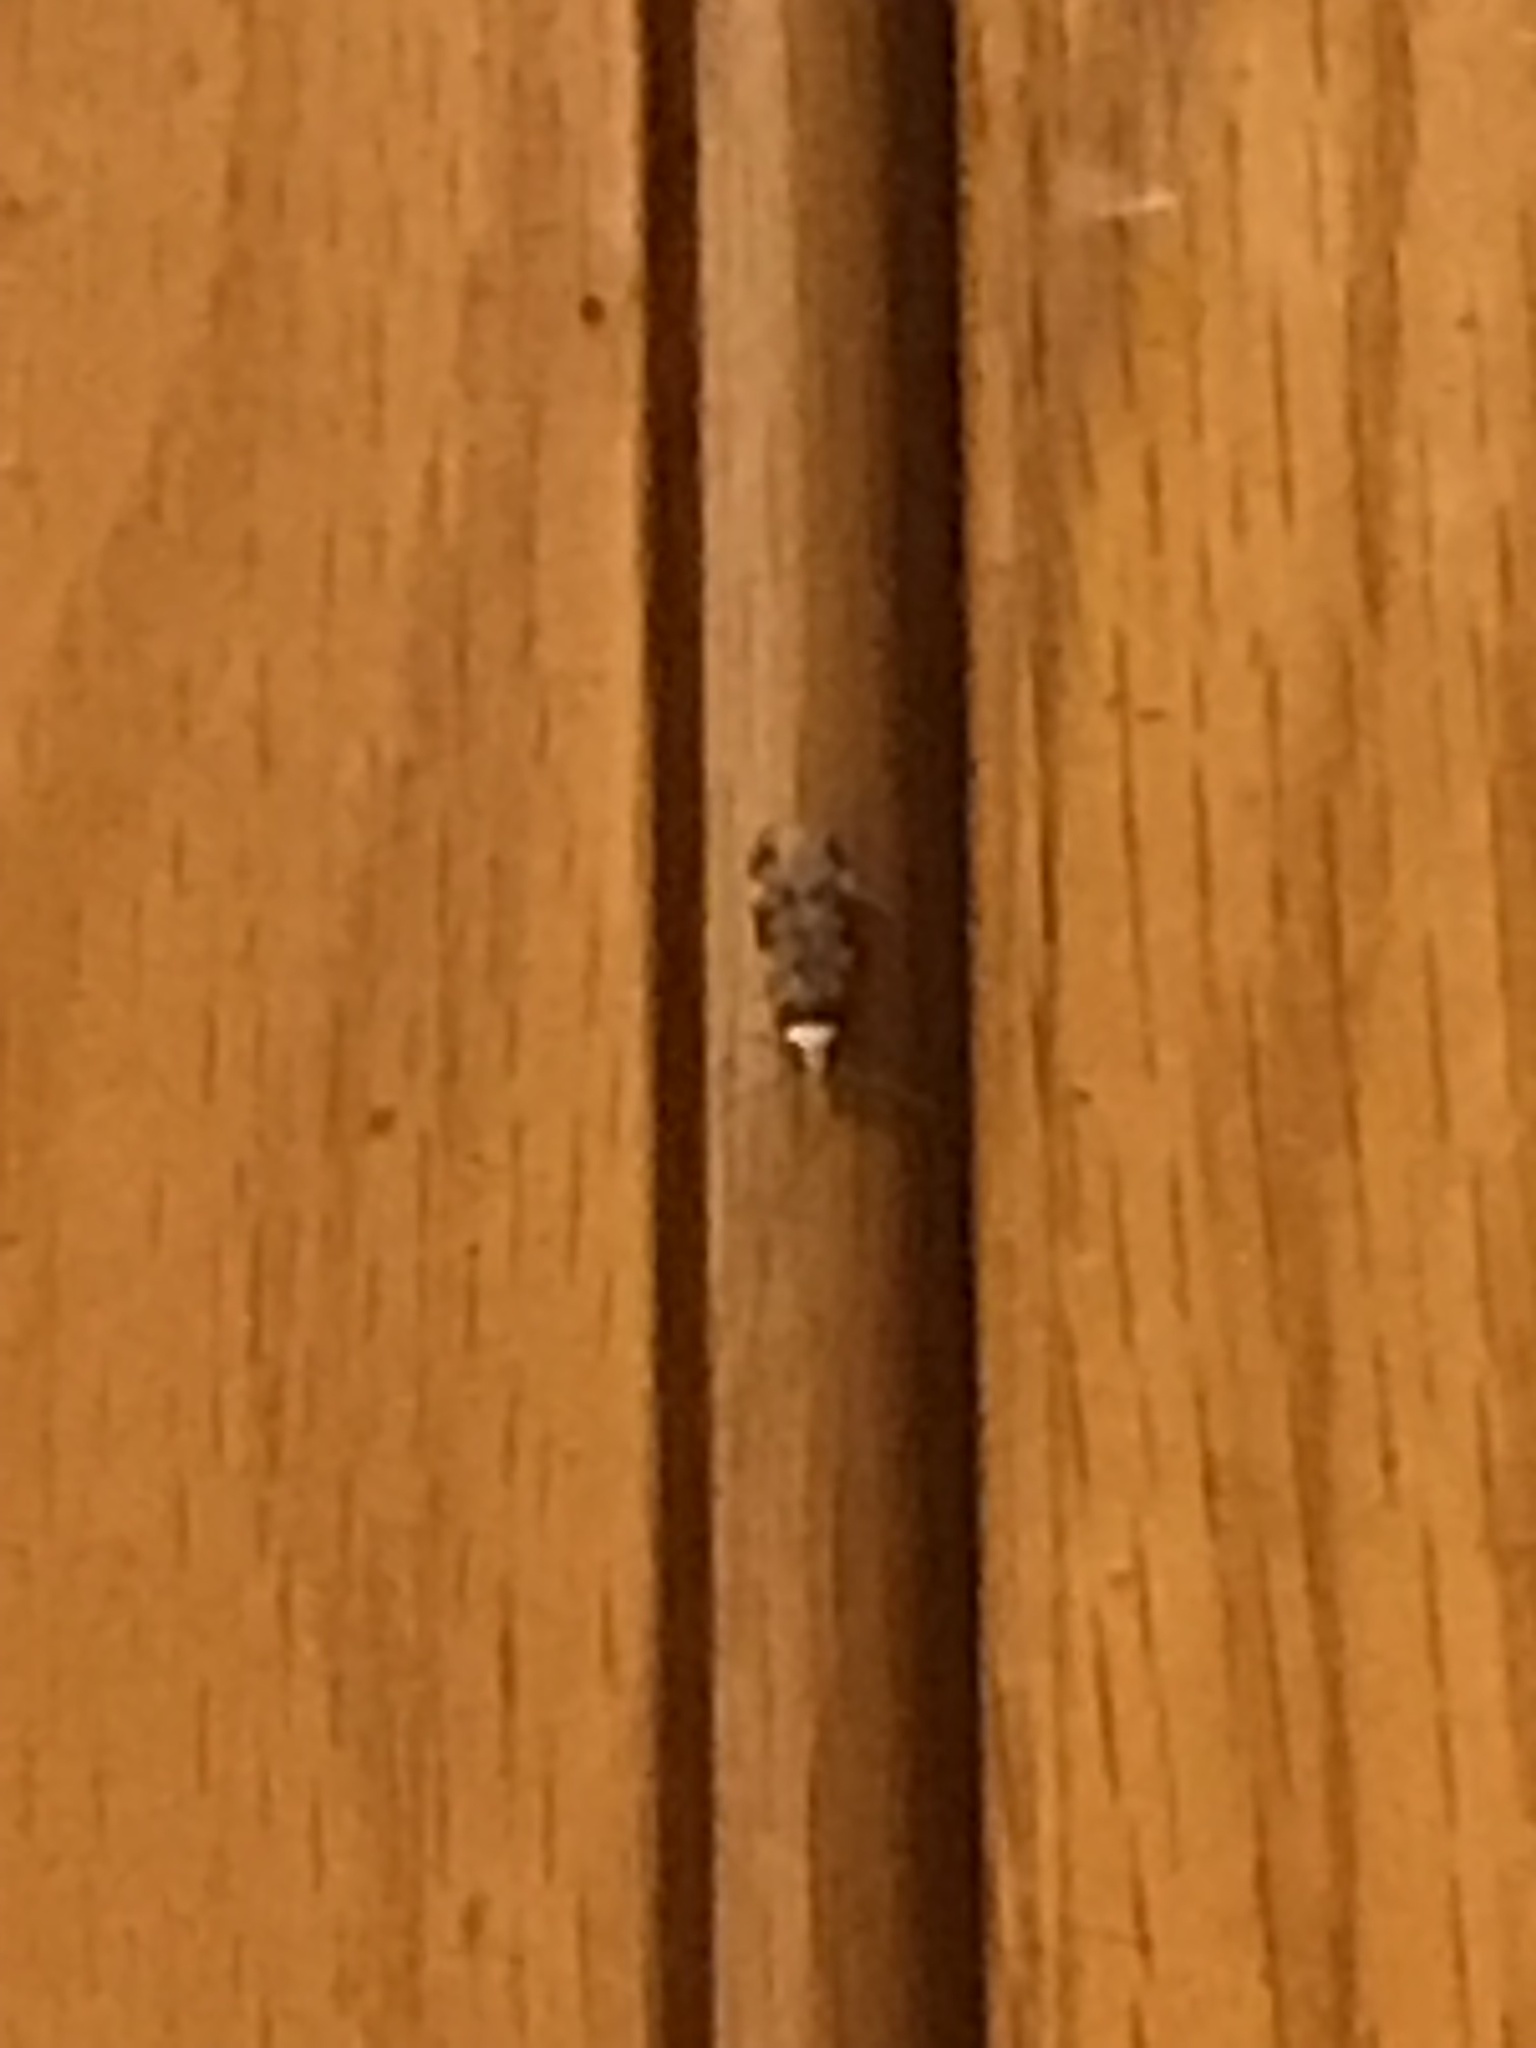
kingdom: Animalia
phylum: Arthropoda
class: Insecta
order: Lepidoptera
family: Oecophoridae
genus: Endrosis
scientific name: Endrosis sarcitrella
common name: White-shouldered house moth
